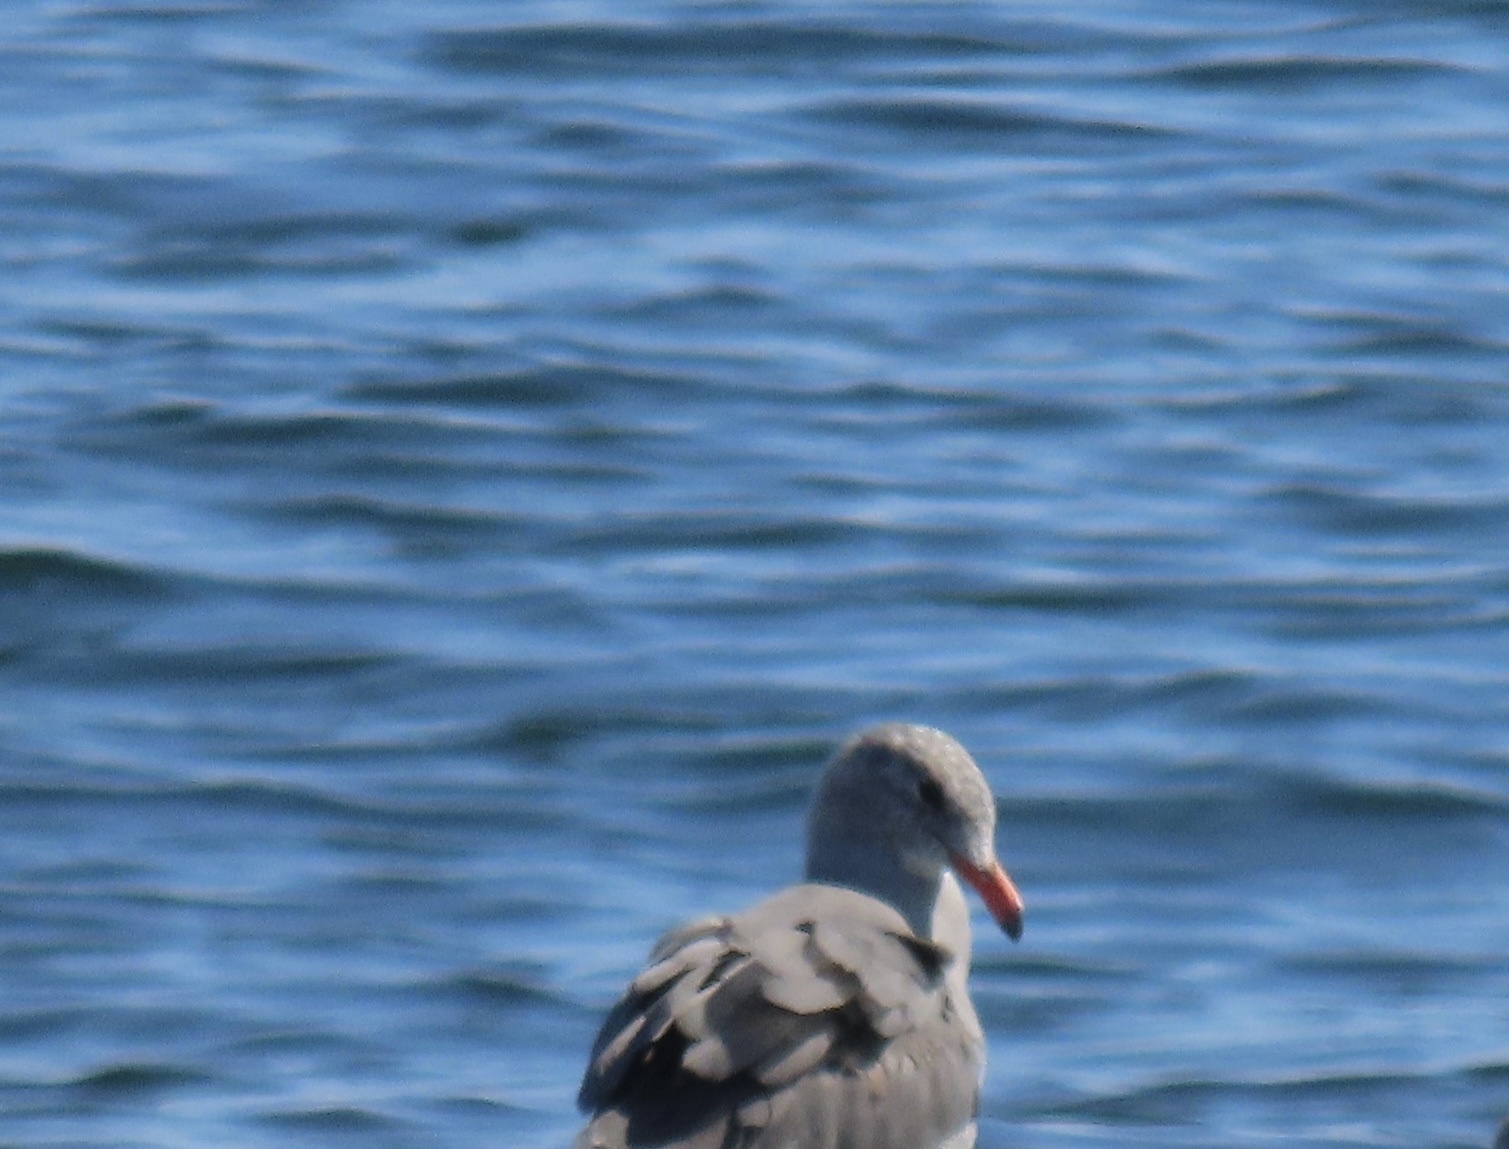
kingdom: Animalia
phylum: Chordata
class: Aves
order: Charadriiformes
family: Laridae
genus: Larus
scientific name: Larus heermanni
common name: Heermann's gull
